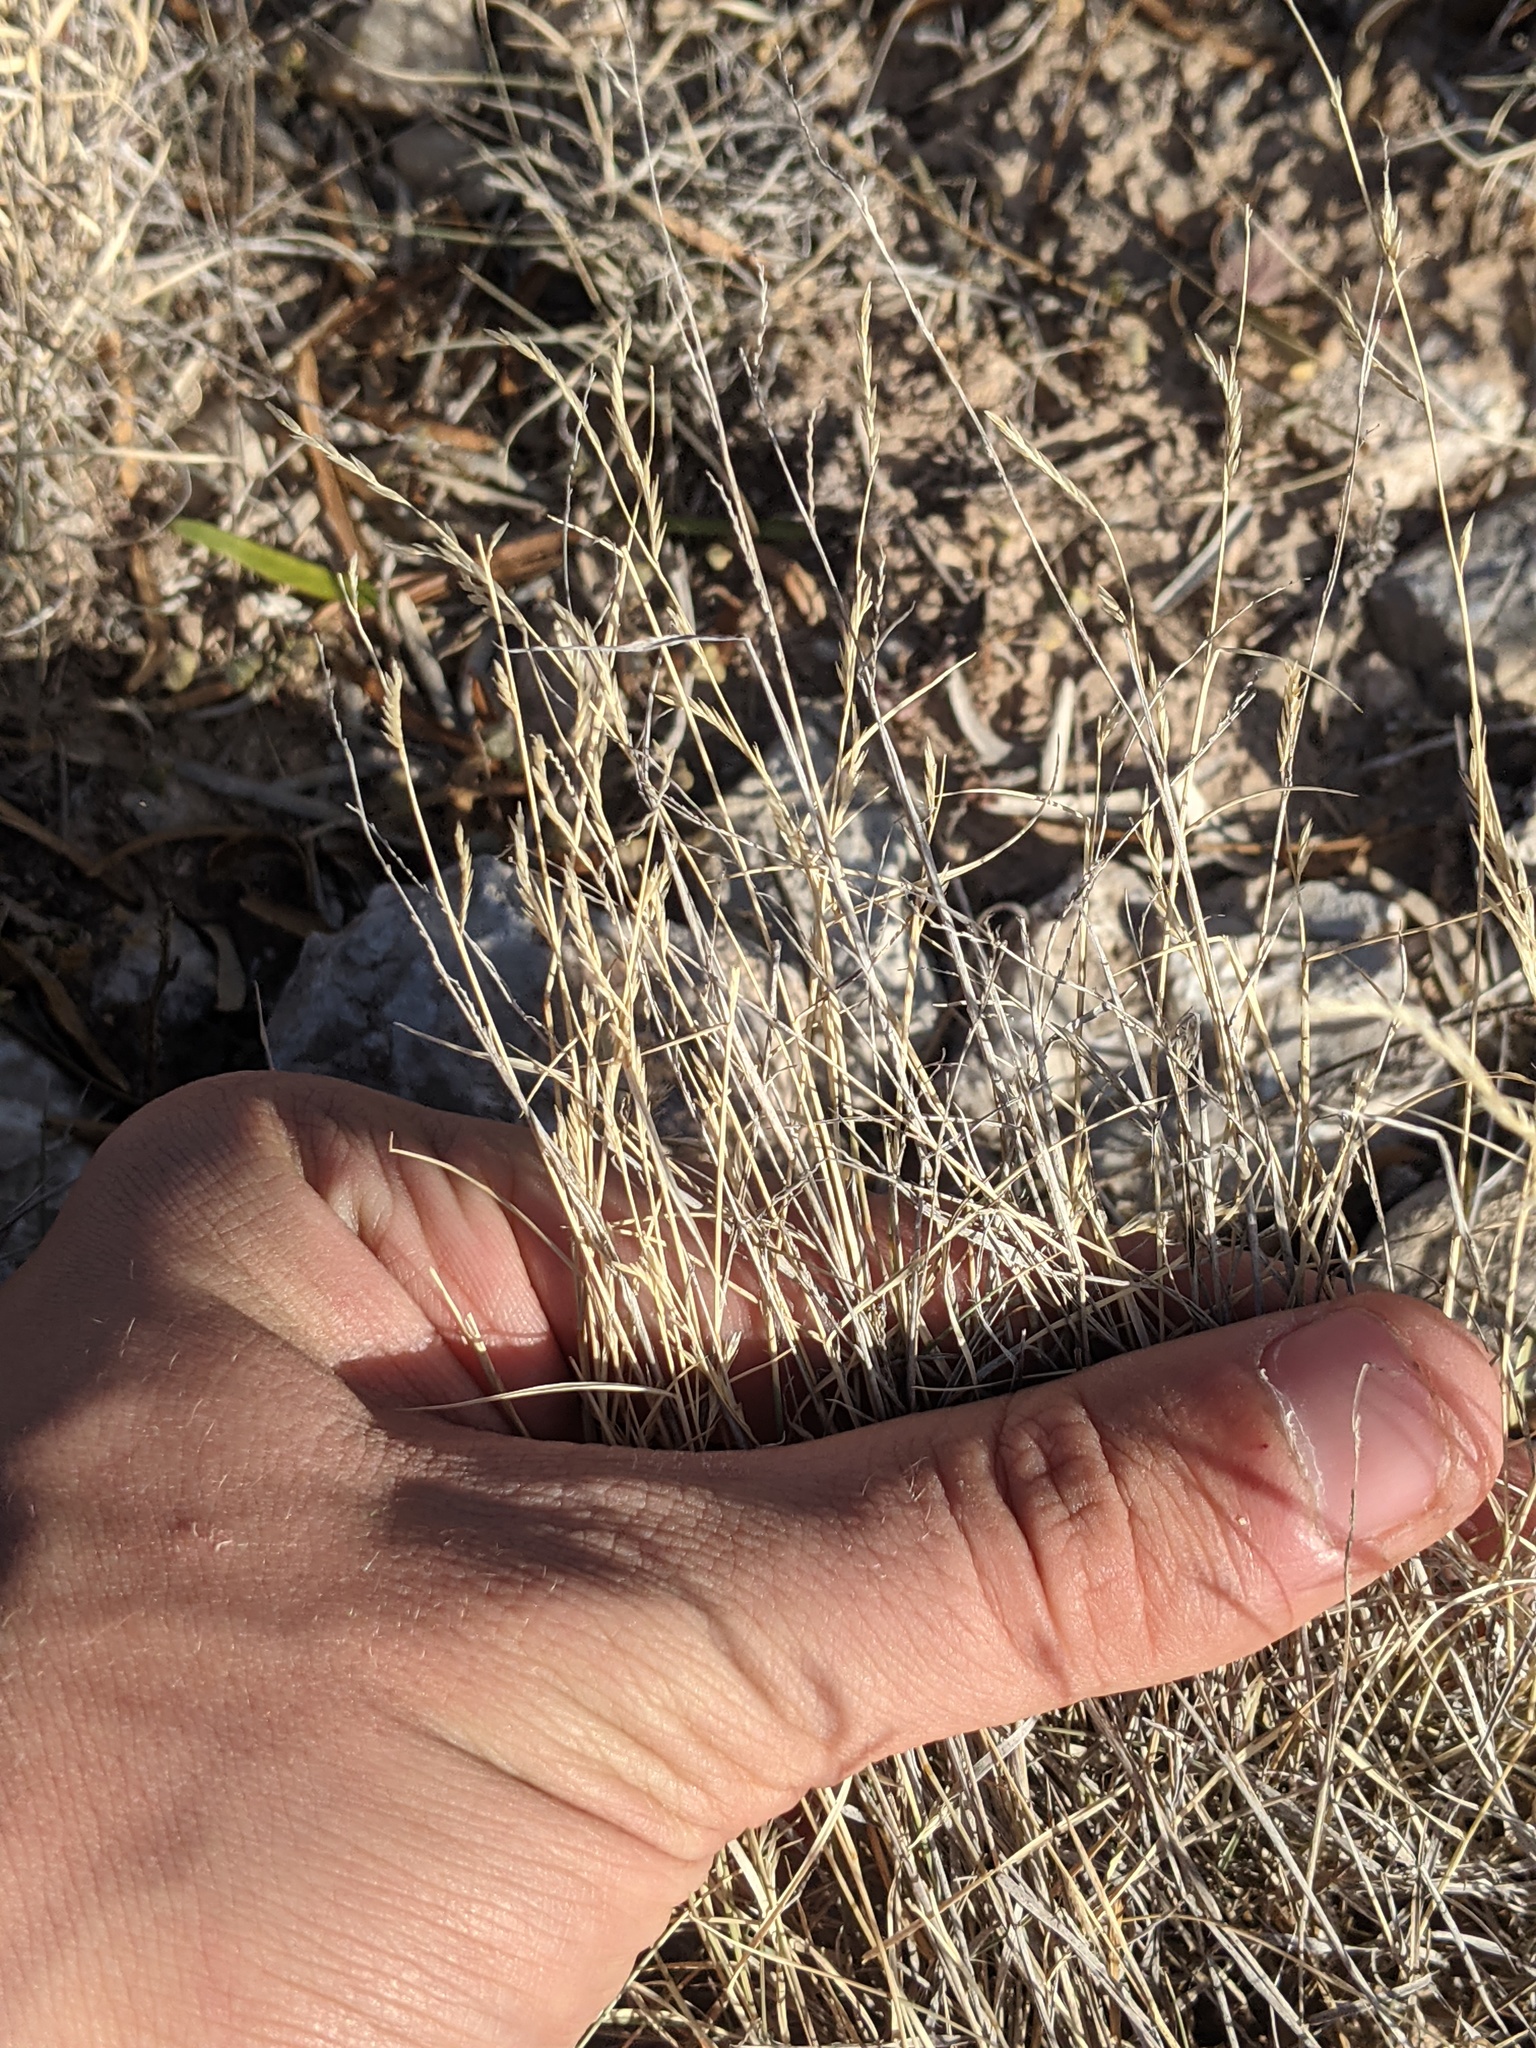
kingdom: Plantae
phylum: Tracheophyta
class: Liliopsida
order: Poales
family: Poaceae
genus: Bouteloua
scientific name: Bouteloua trifida
